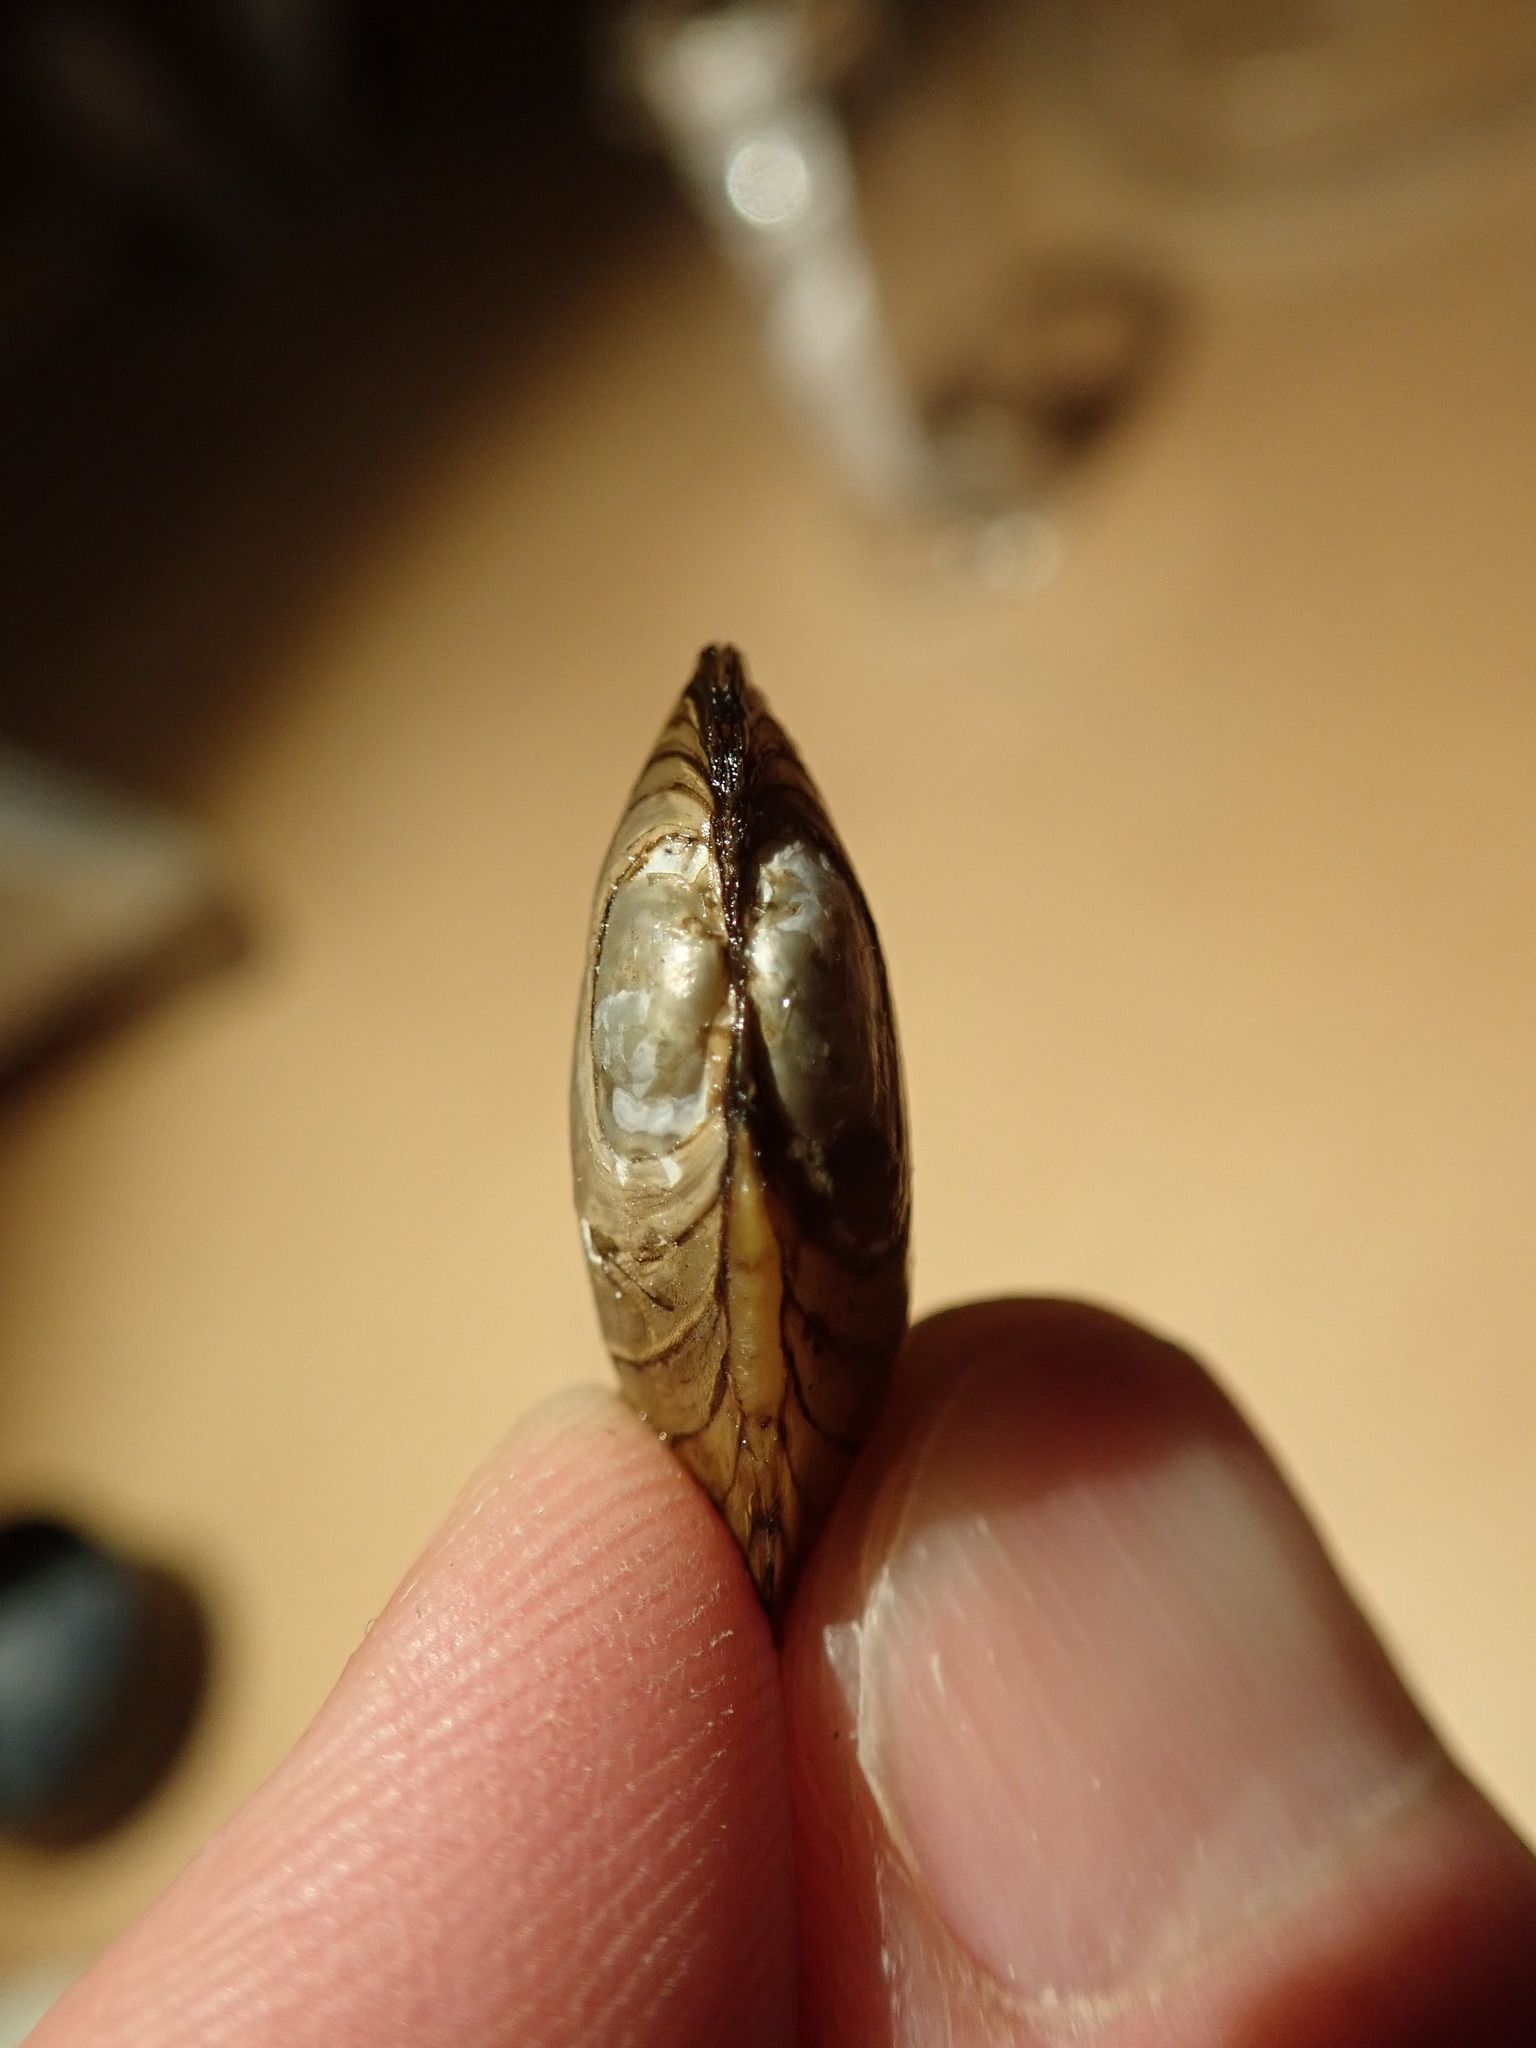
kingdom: Animalia
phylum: Mollusca
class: Bivalvia
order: Unionida
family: Unionidae
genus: Lampsilis
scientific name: Lampsilis siliquoidea
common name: Fatmucket
